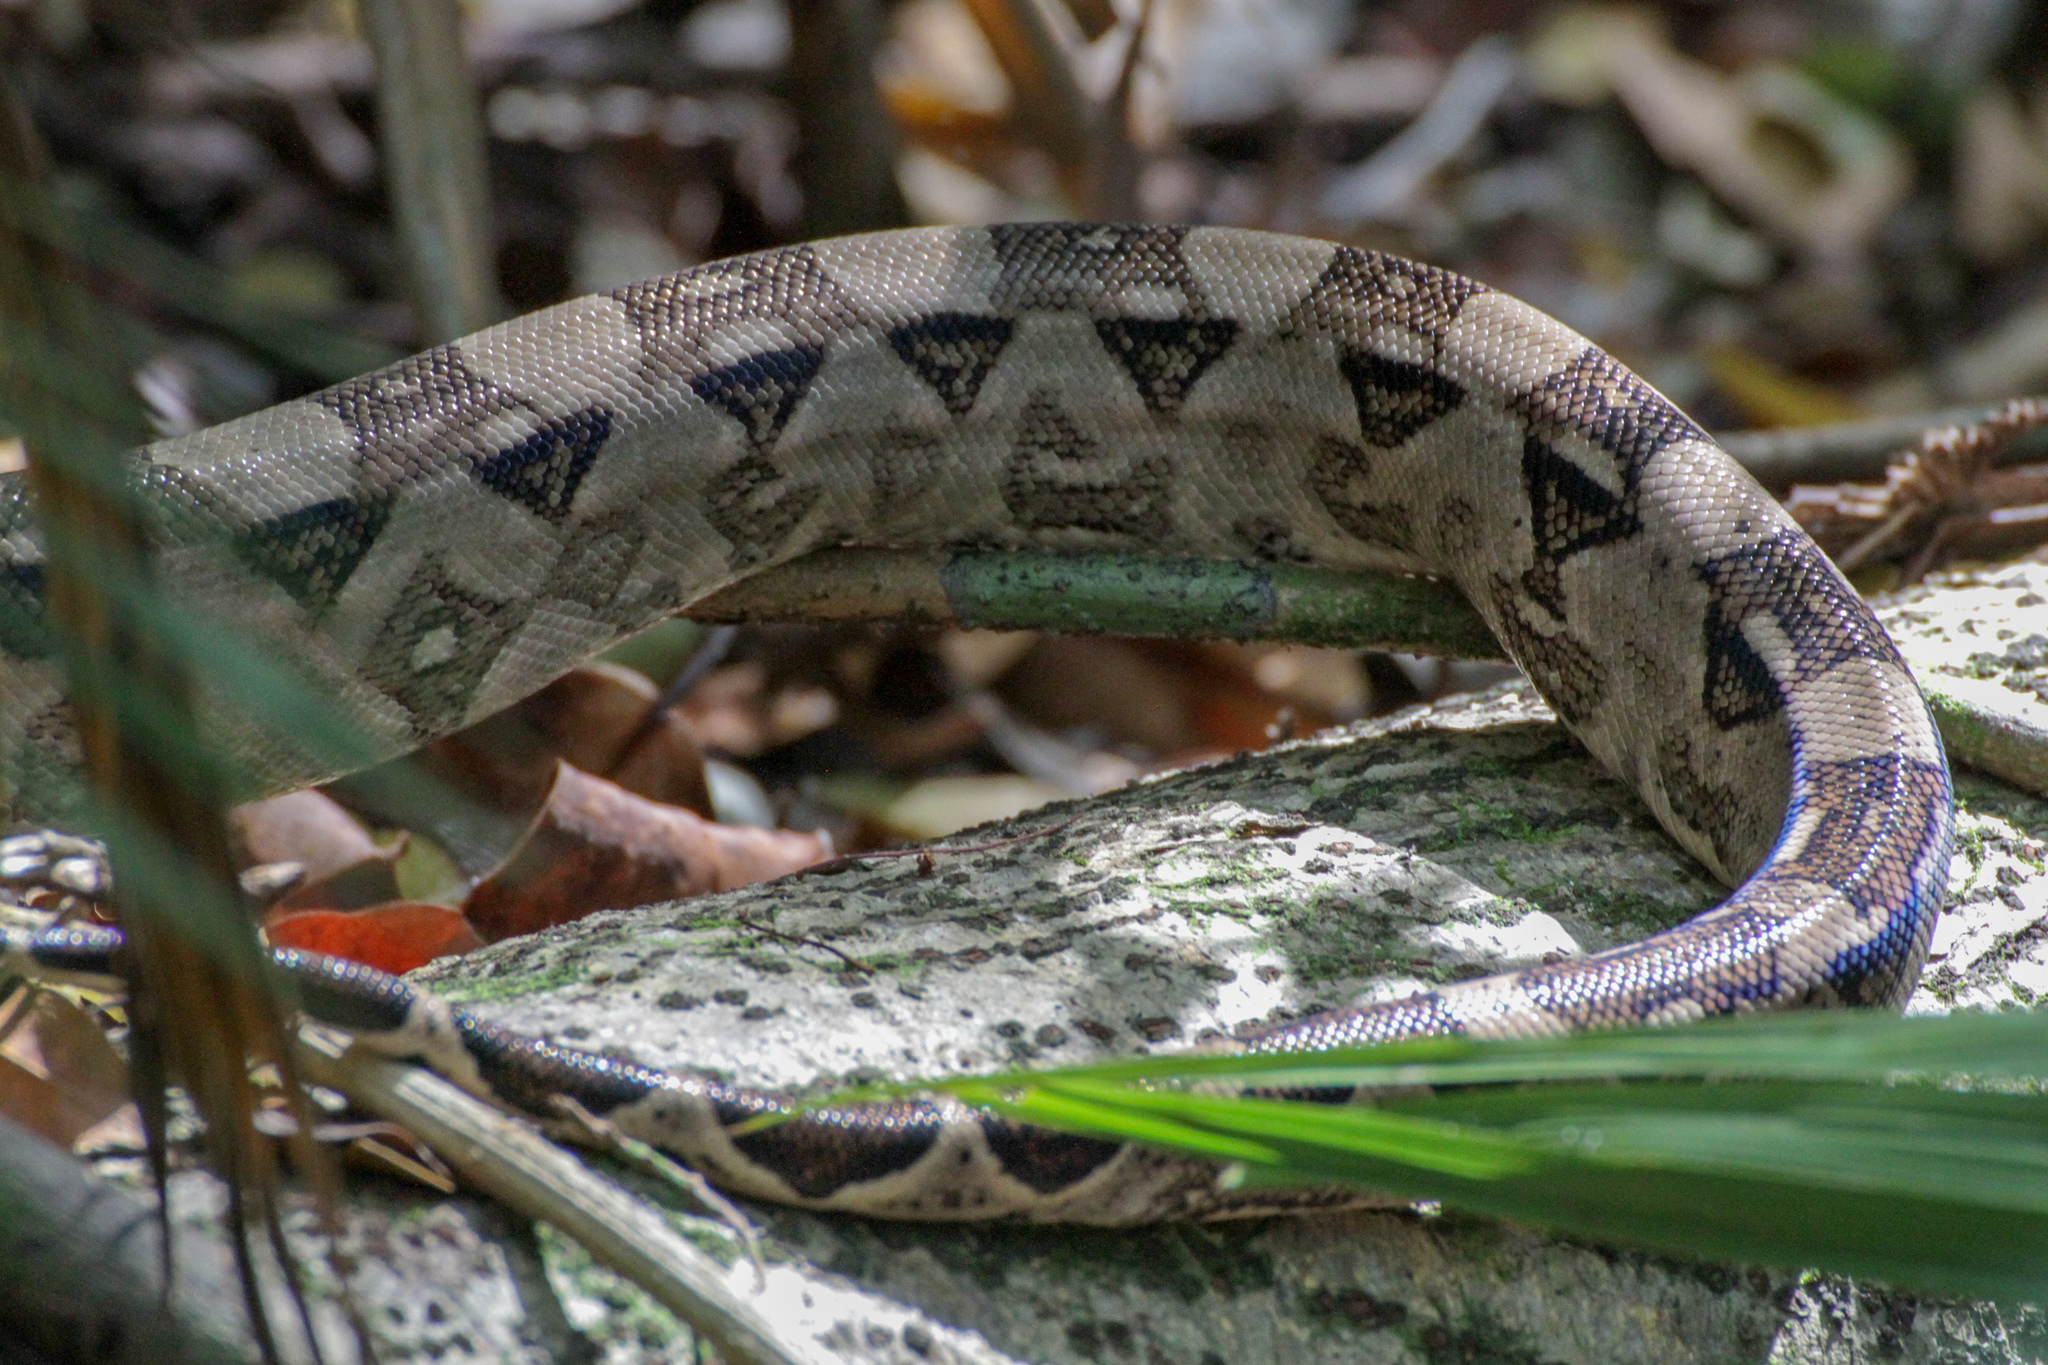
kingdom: Animalia
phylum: Chordata
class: Squamata
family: Boidae
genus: Boa
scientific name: Boa imperator
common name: Central american boa
